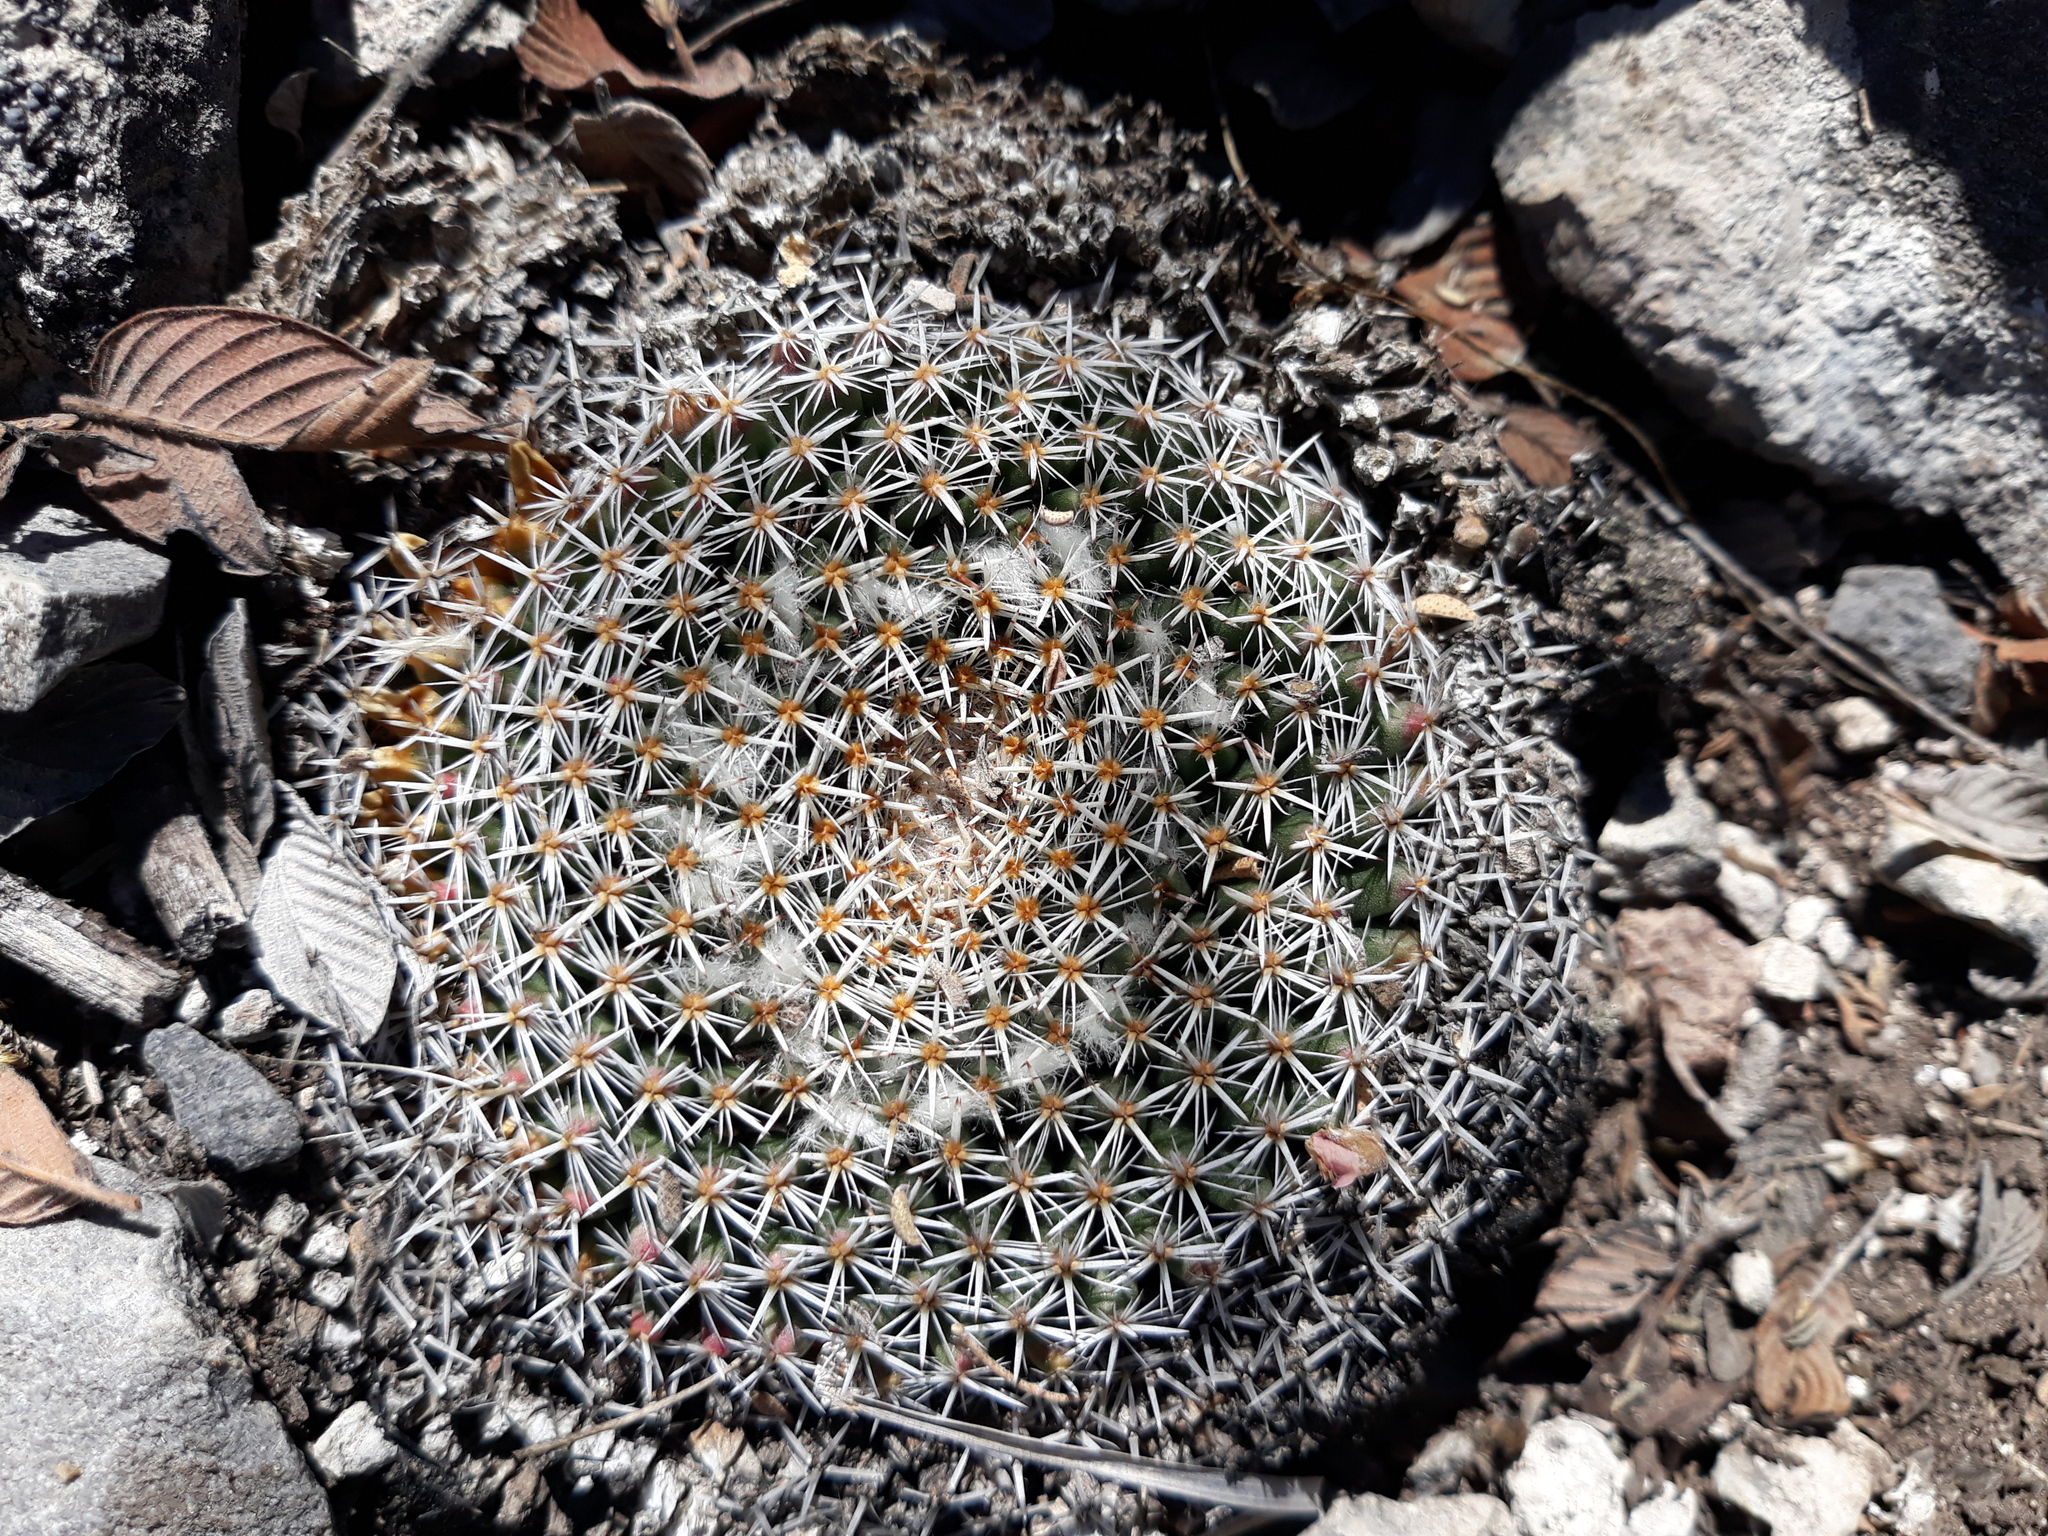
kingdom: Plantae
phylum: Tracheophyta
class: Magnoliopsida
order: Caryophyllales
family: Cactaceae
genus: Mammillaria
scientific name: Mammillaria perbella
